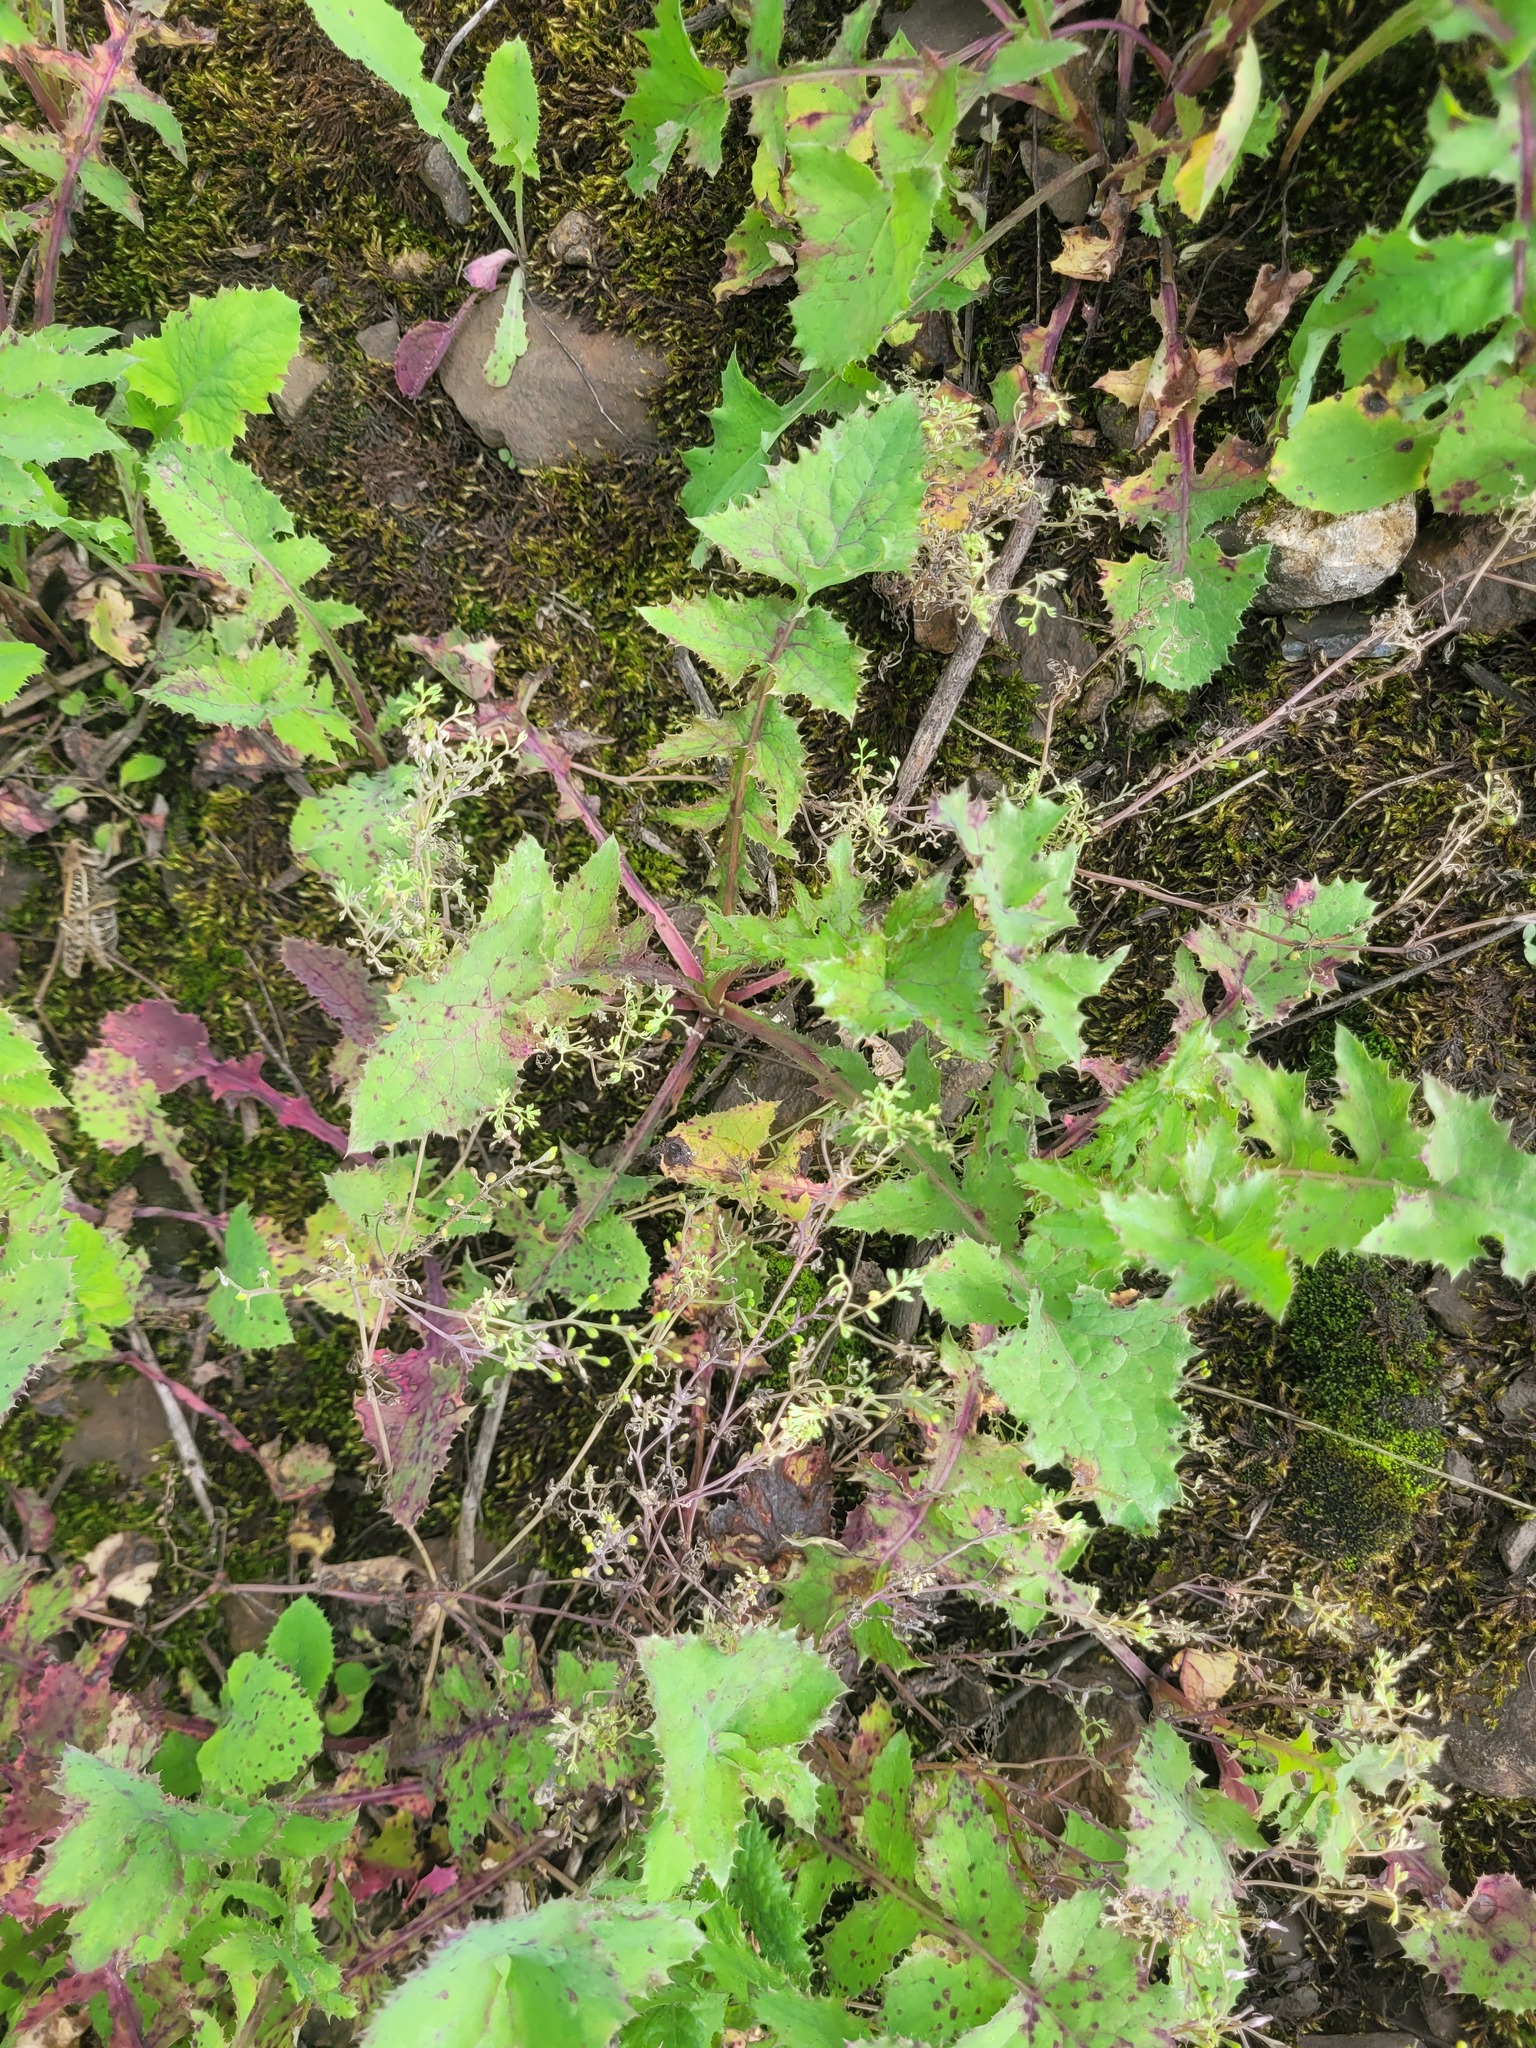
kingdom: Plantae
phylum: Tracheophyta
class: Magnoliopsida
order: Asterales
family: Asteraceae
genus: Sonchus
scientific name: Sonchus oleraceus
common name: Common sowthistle
